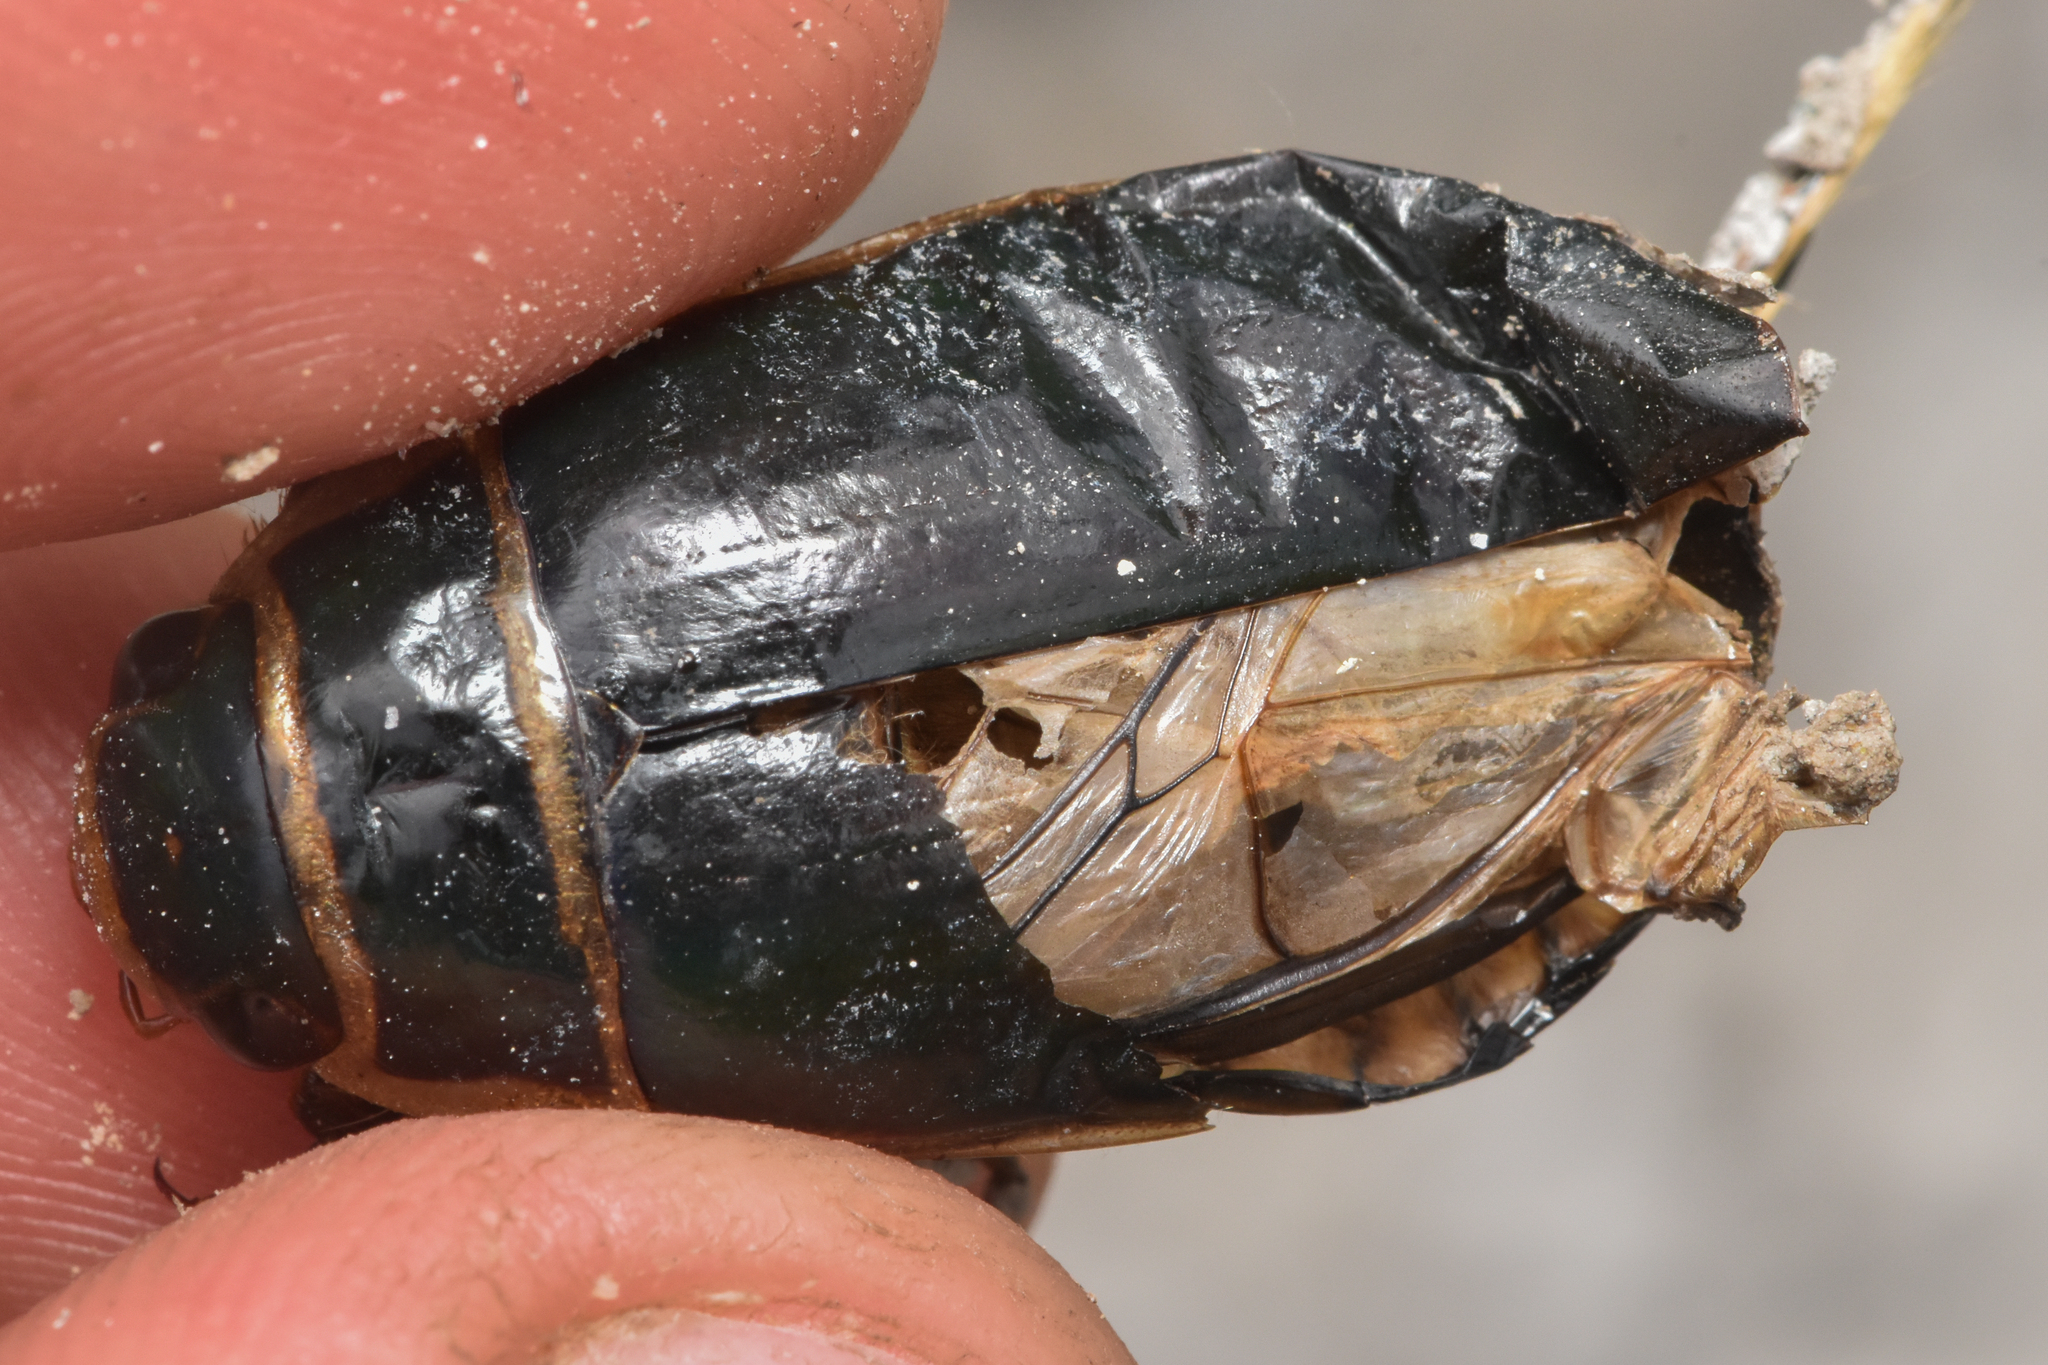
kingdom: Animalia
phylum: Arthropoda
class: Insecta
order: Coleoptera
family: Dytiscidae
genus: Dytiscus
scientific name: Dytiscus
